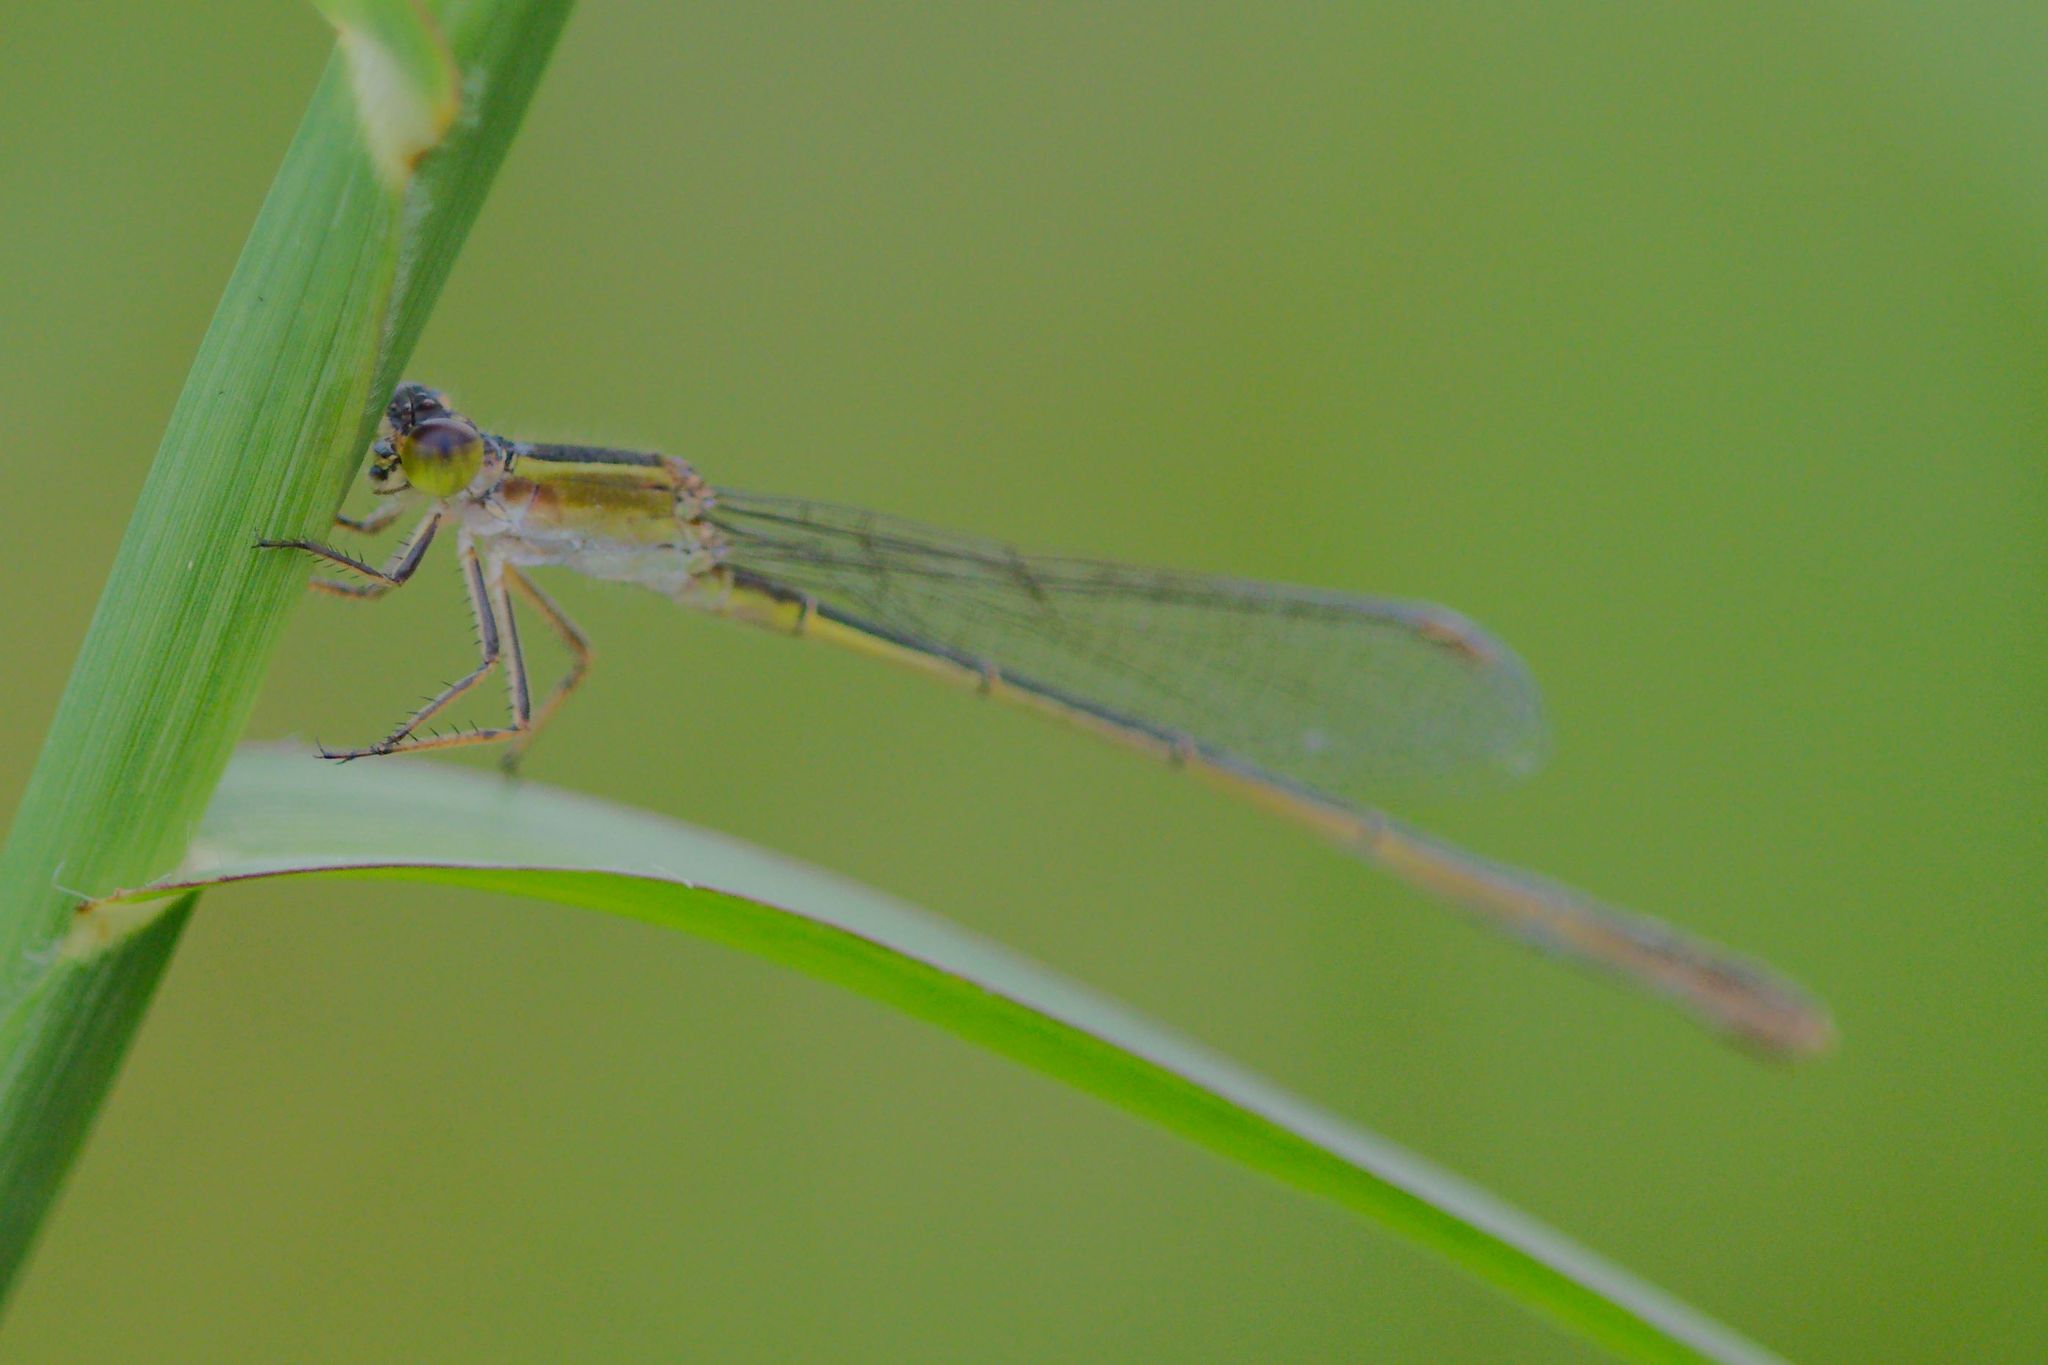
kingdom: Animalia
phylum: Arthropoda
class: Insecta
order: Odonata
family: Coenagrionidae
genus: Ischnura
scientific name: Ischnura ramburii
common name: Rambur's forktail
